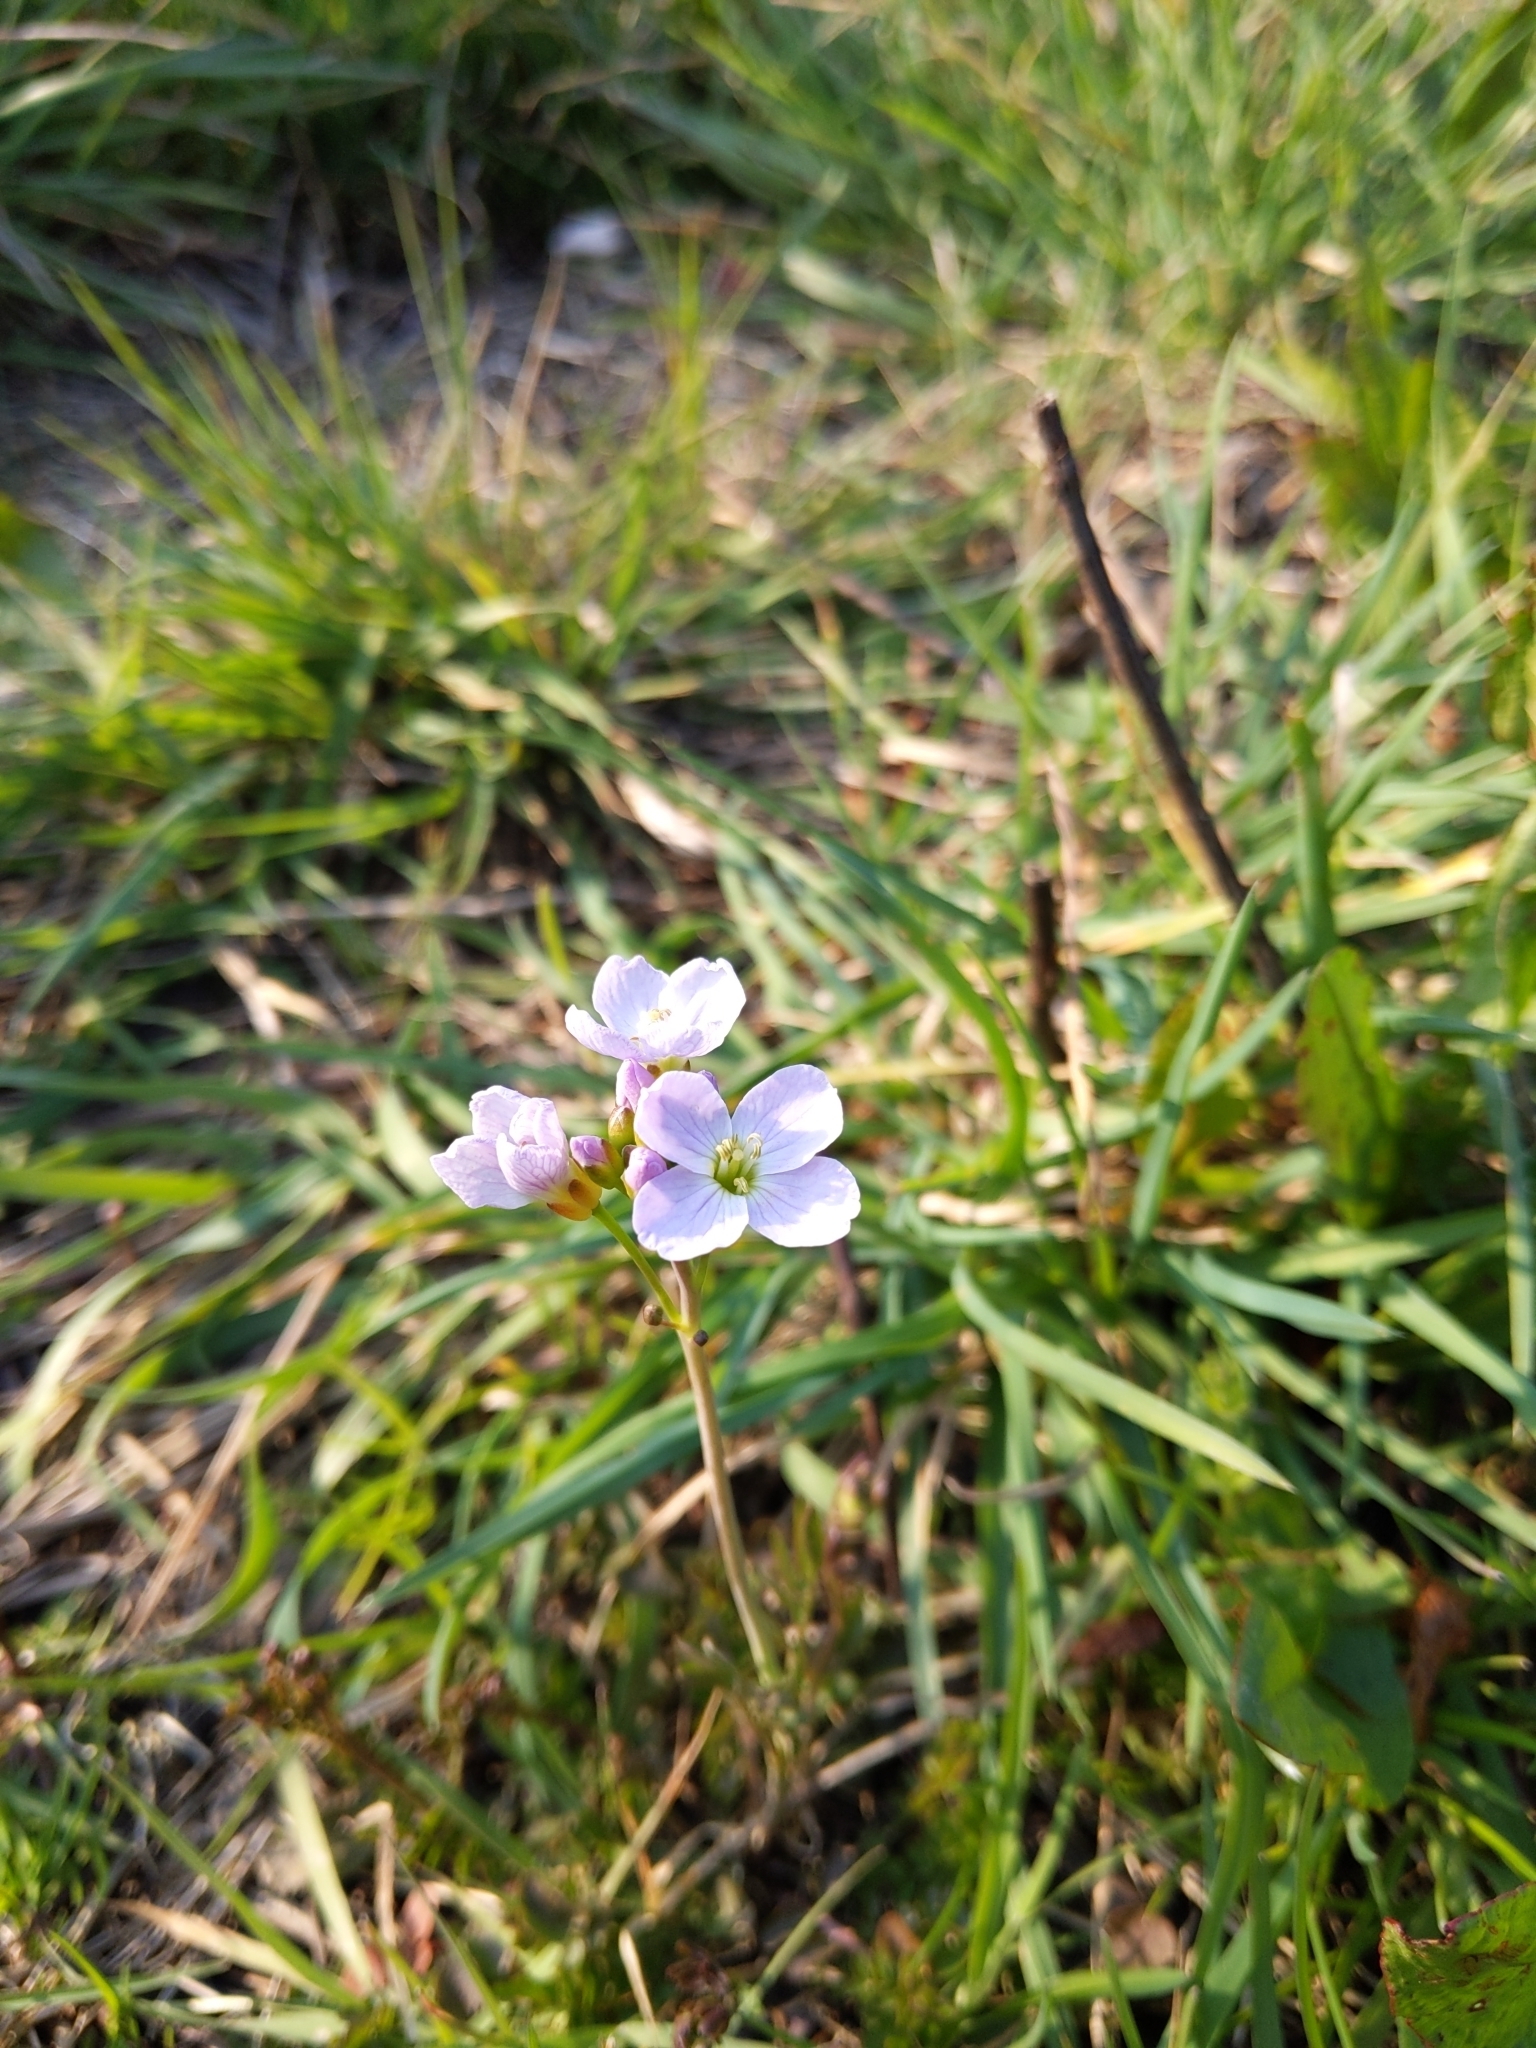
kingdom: Plantae
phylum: Tracheophyta
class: Magnoliopsida
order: Brassicales
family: Brassicaceae
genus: Cardamine
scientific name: Cardamine pratensis
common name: Cuckoo flower
